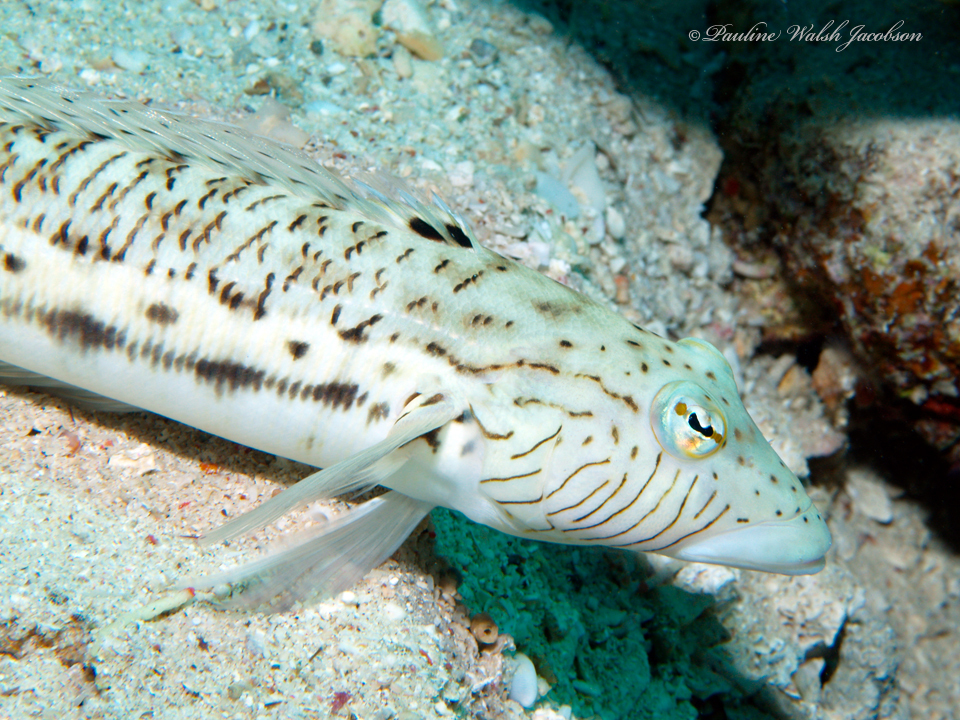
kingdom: Animalia
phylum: Chordata
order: Perciformes
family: Pinguipedidae
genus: Parapercis
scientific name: Parapercis hexophtalma
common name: Speckled sandperch
